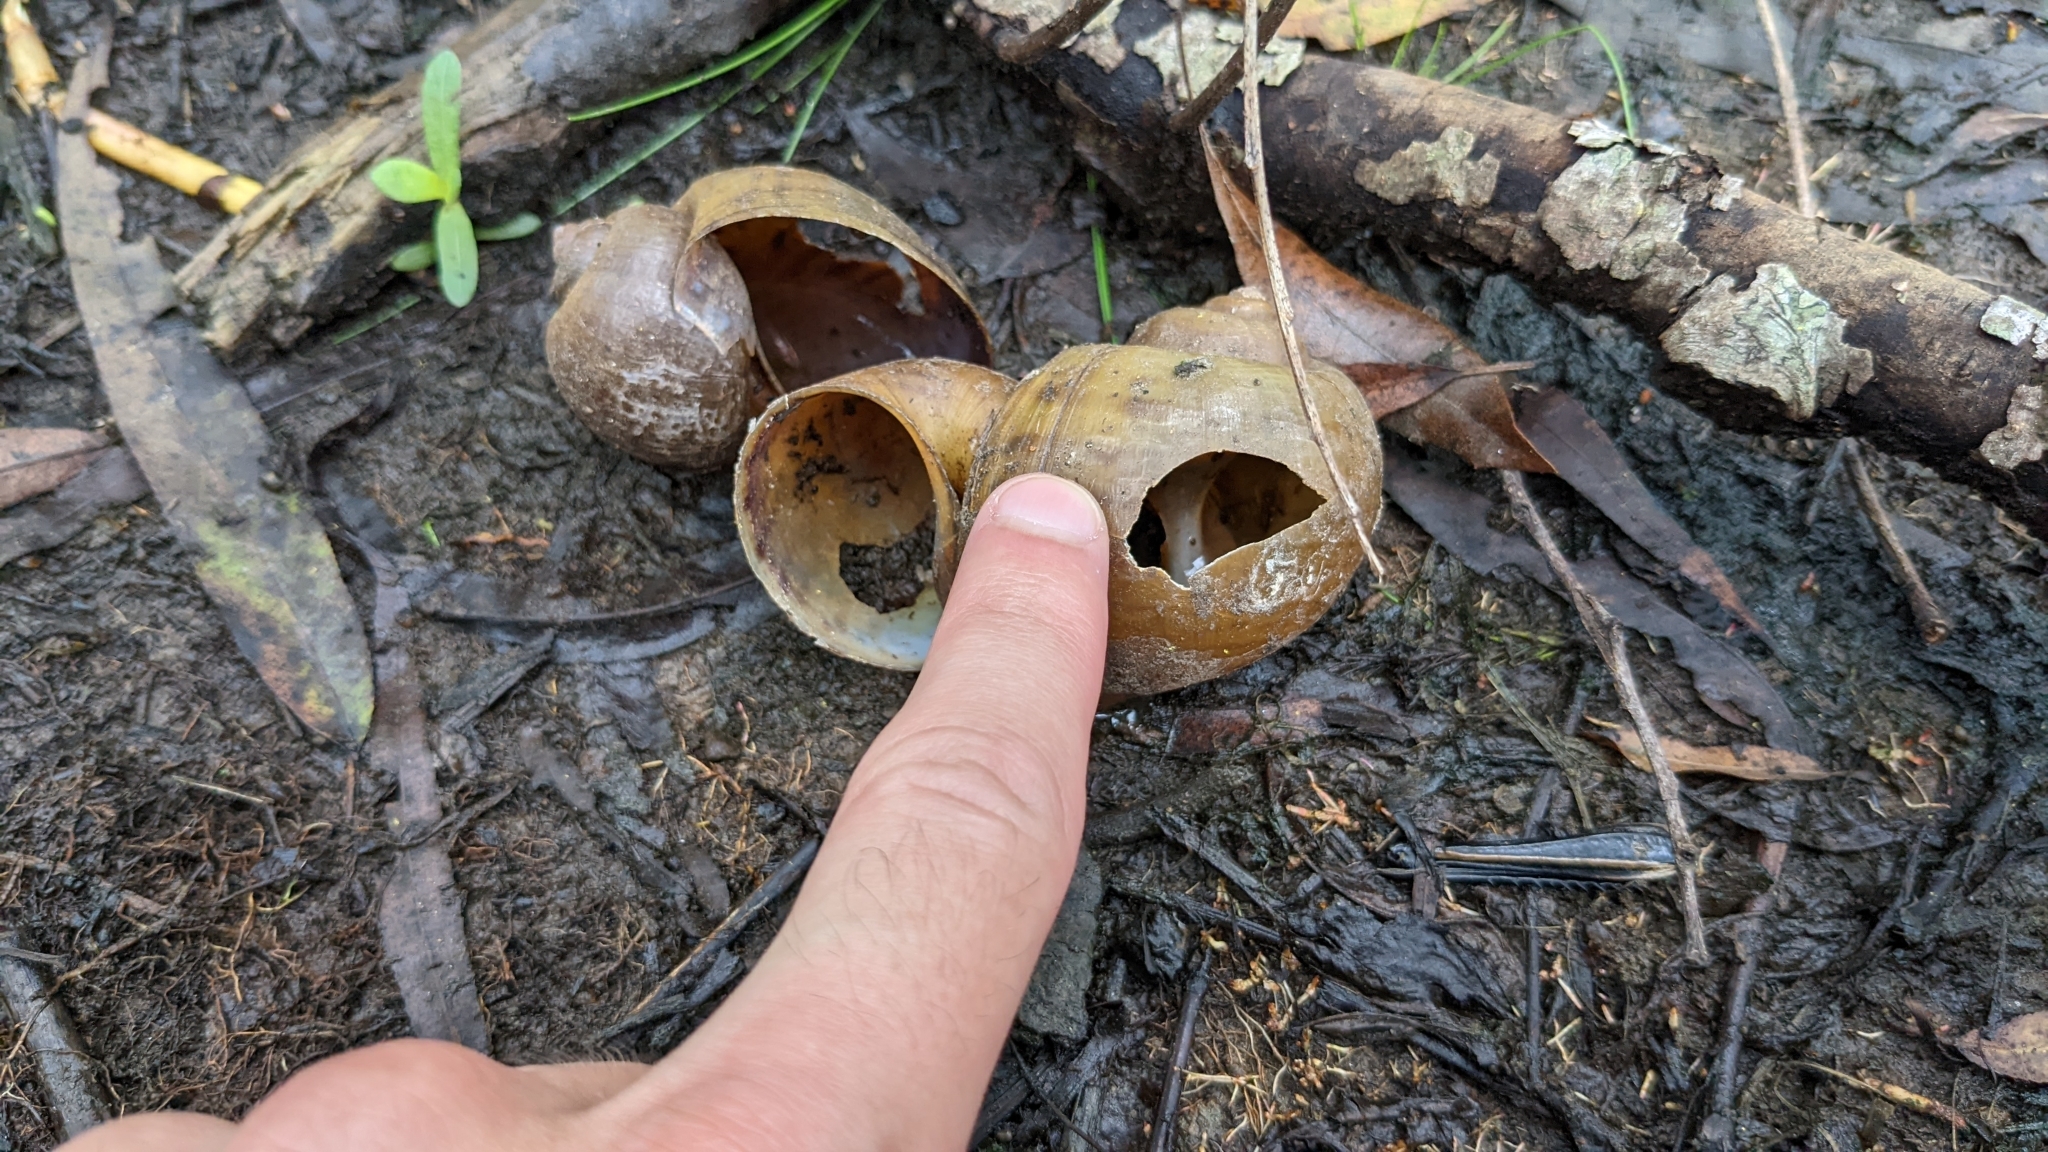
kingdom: Animalia
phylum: Mollusca
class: Gastropoda
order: Architaenioglossa
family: Ampullariidae
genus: Pomacea
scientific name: Pomacea maculata
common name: Giant applesnail
